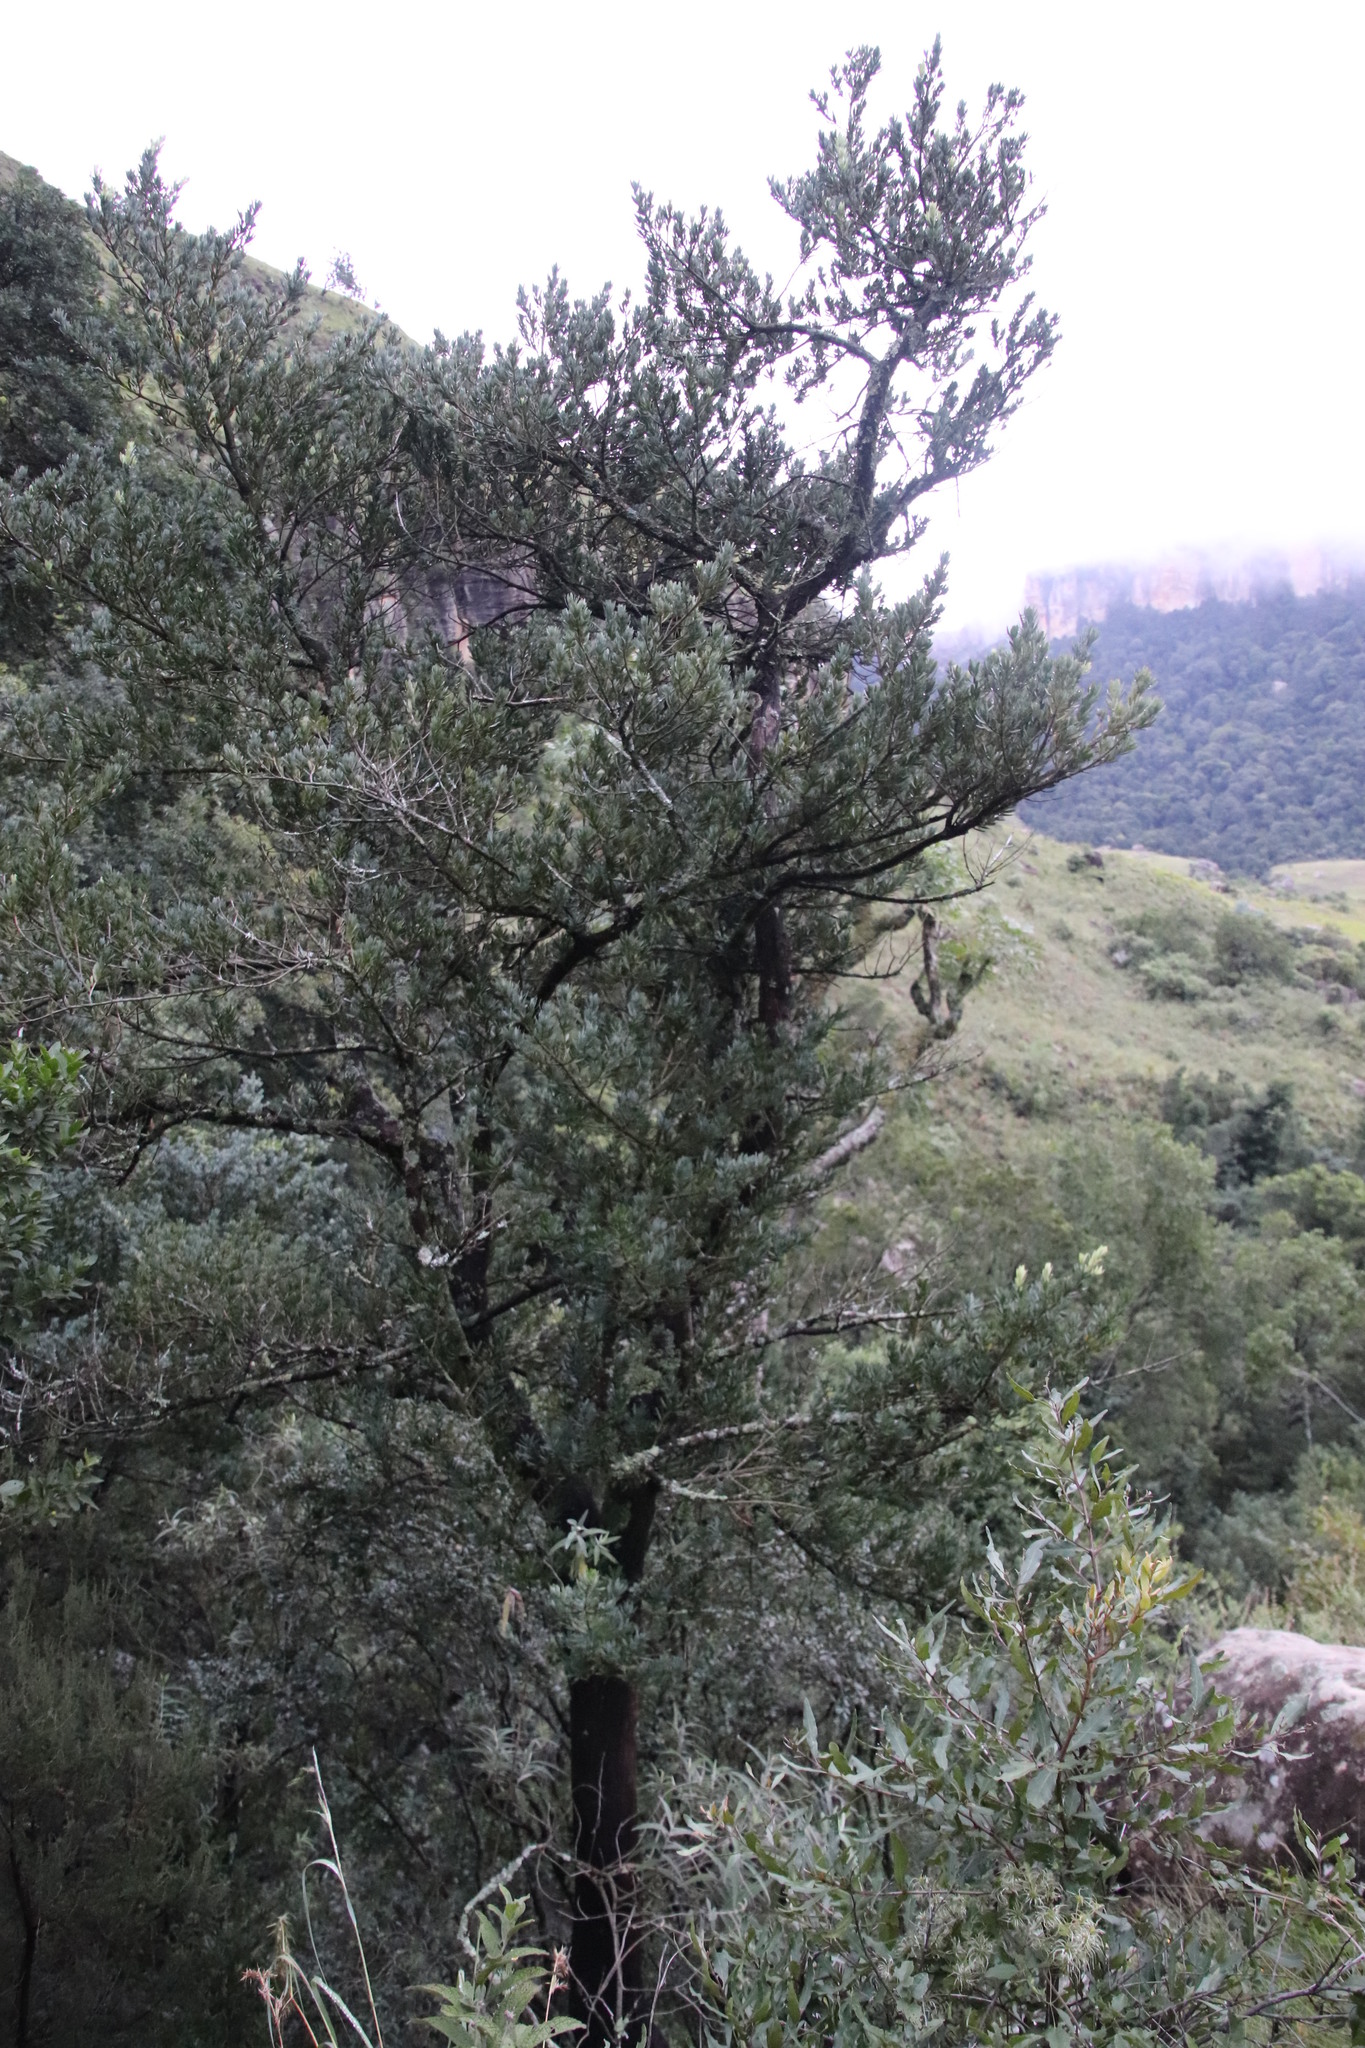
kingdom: Plantae
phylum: Tracheophyta
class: Pinopsida
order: Pinales
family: Podocarpaceae
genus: Podocarpus
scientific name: Podocarpus latifolius
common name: True yellowwood
